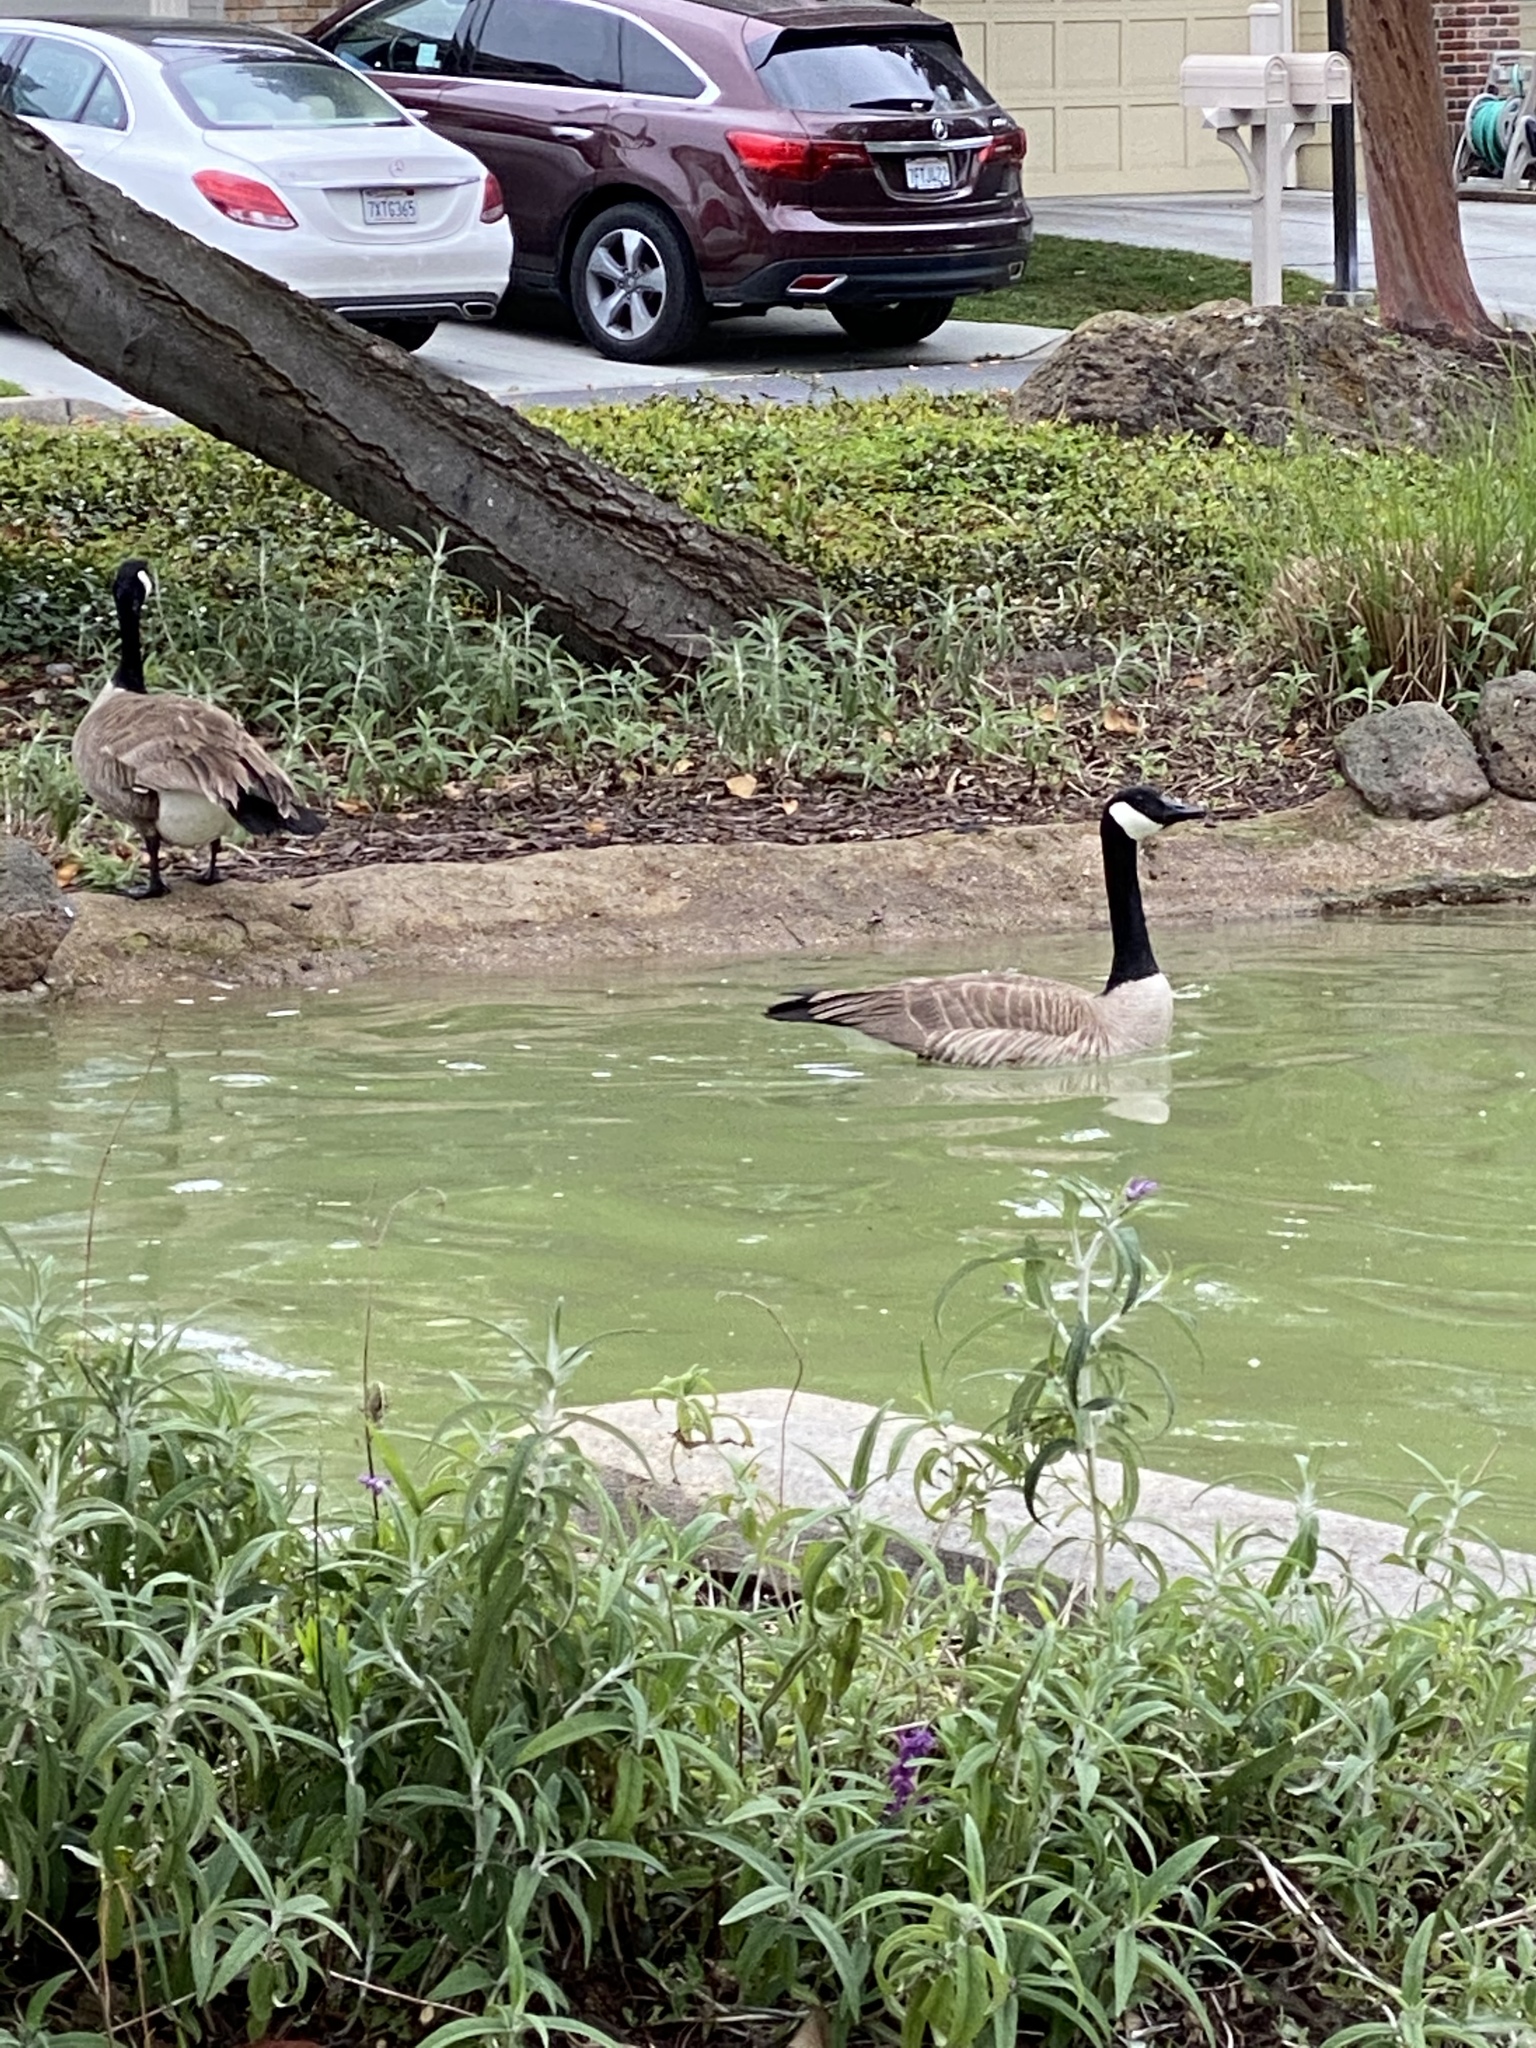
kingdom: Animalia
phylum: Chordata
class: Aves
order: Anseriformes
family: Anatidae
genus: Branta
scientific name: Branta canadensis
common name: Canada goose
